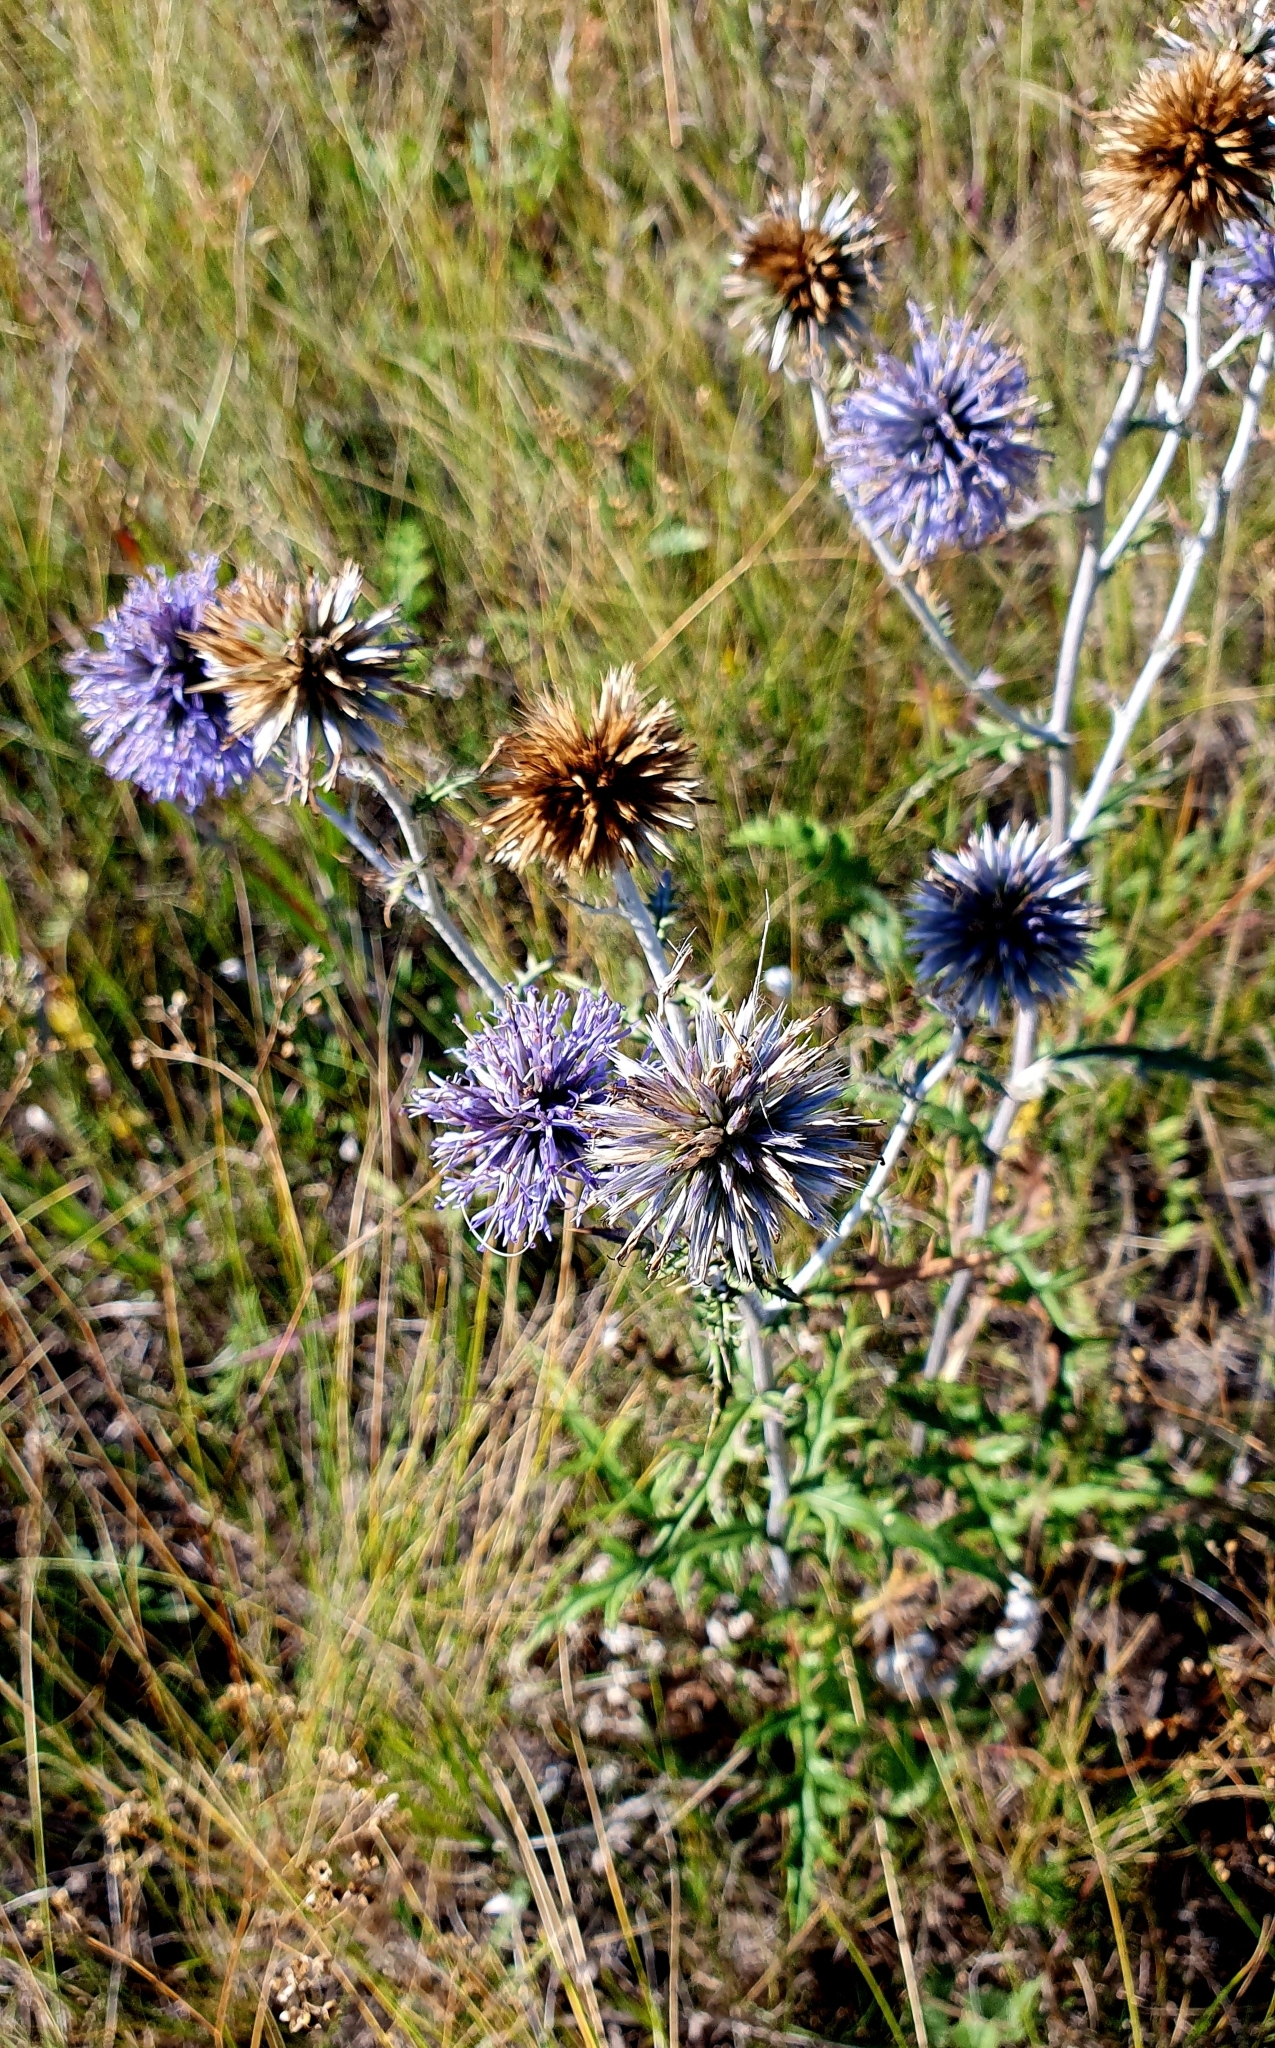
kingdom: Plantae
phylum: Tracheophyta
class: Magnoliopsida
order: Asterales
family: Asteraceae
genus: Echinops
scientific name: Echinops saksonovii
